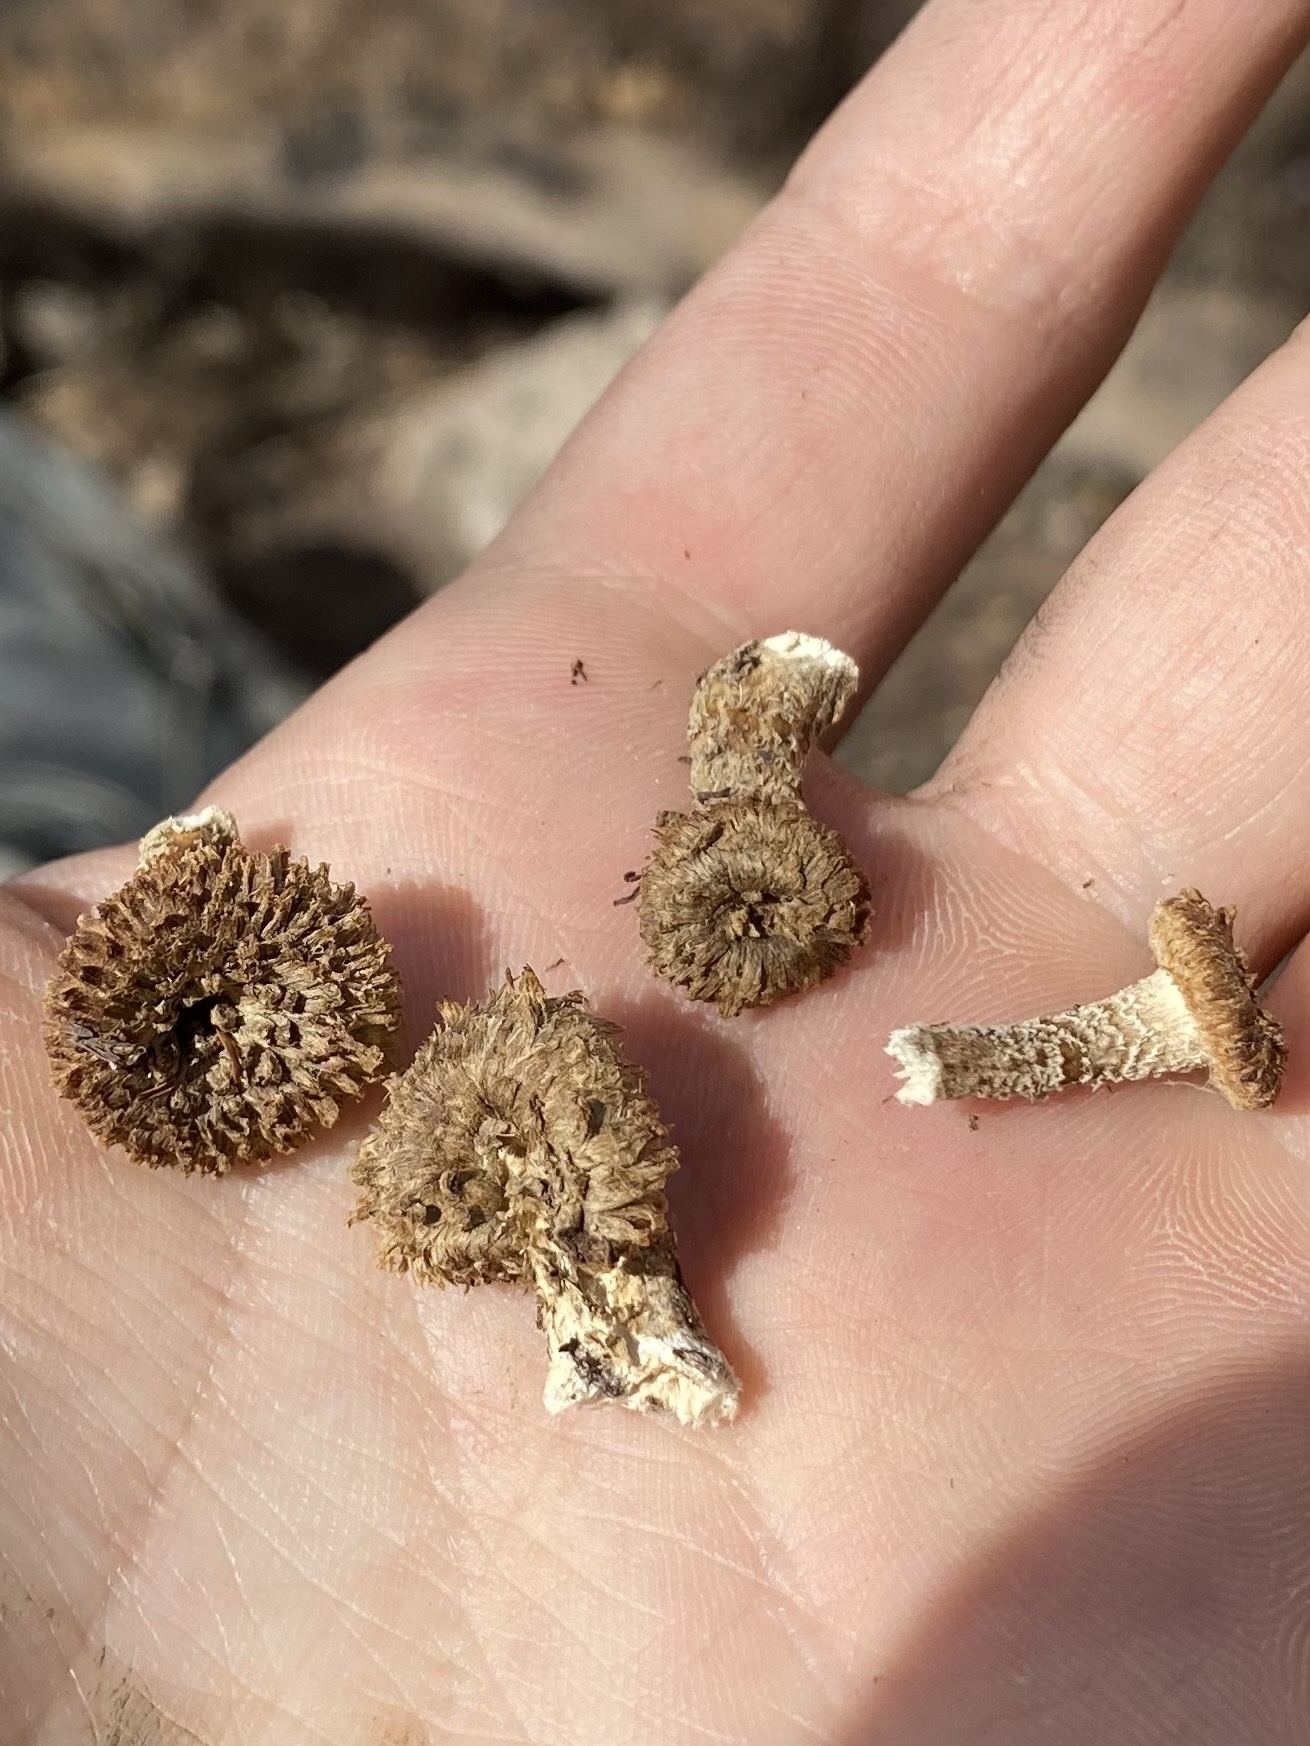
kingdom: Fungi
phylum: Basidiomycota
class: Agaricomycetes
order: Polyporales
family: Polyporaceae
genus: Lentinus
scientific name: Lentinus crinitus
